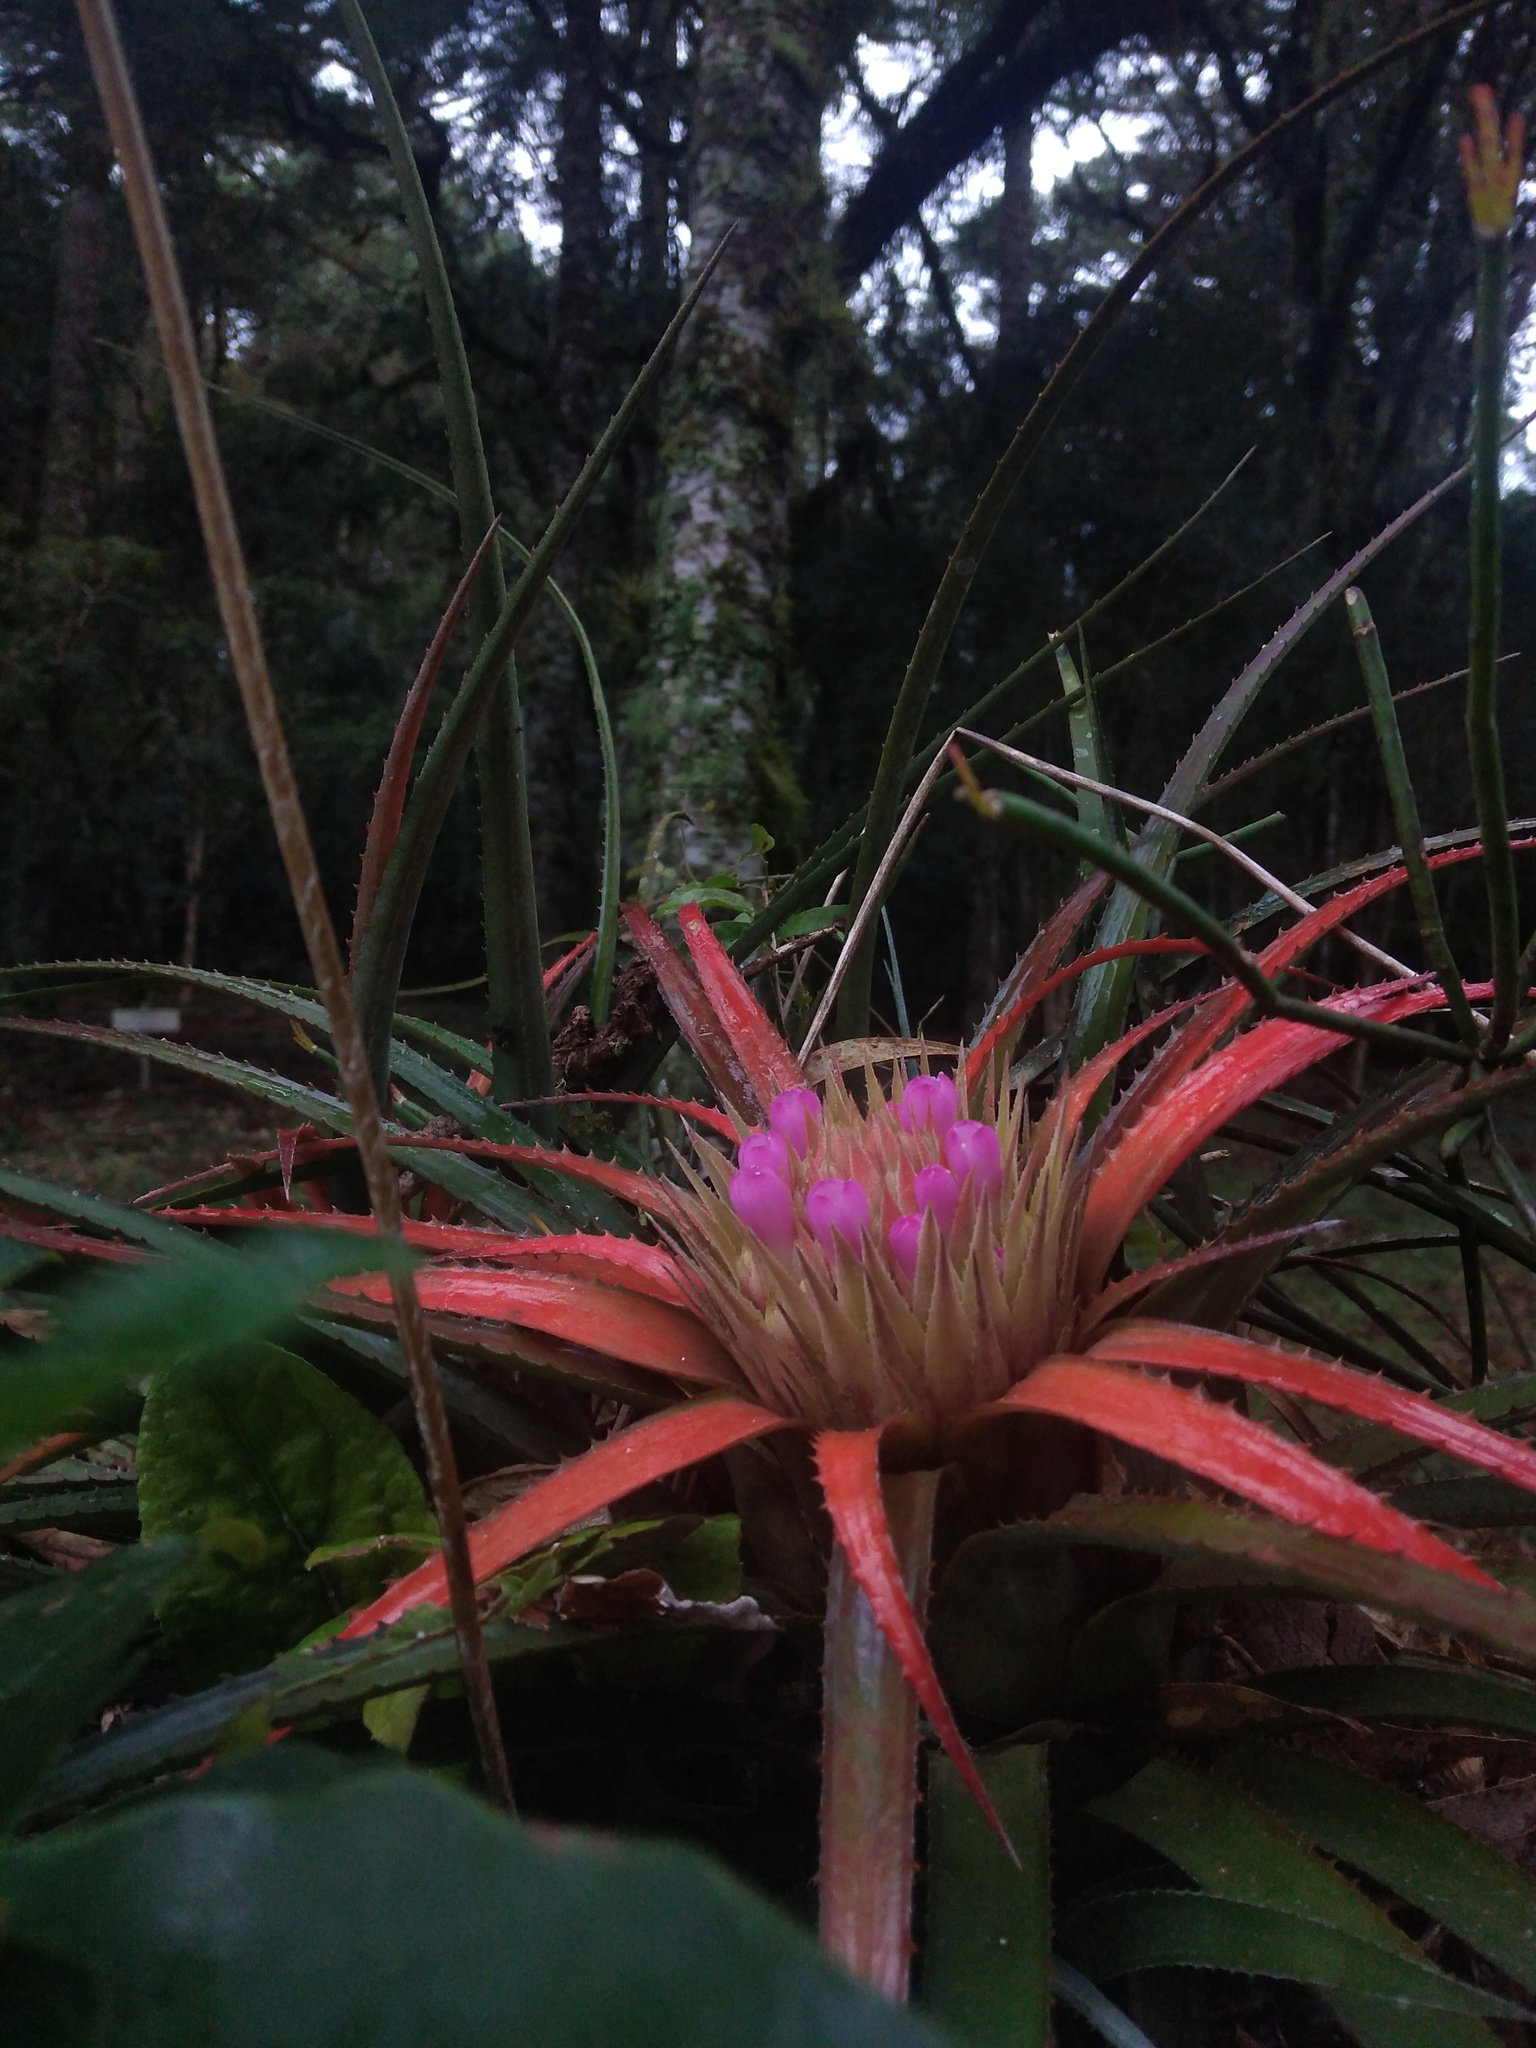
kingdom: Plantae
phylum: Tracheophyta
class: Liliopsida
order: Poales
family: Bromeliaceae
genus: Aechmea
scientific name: Aechmea recurvata
